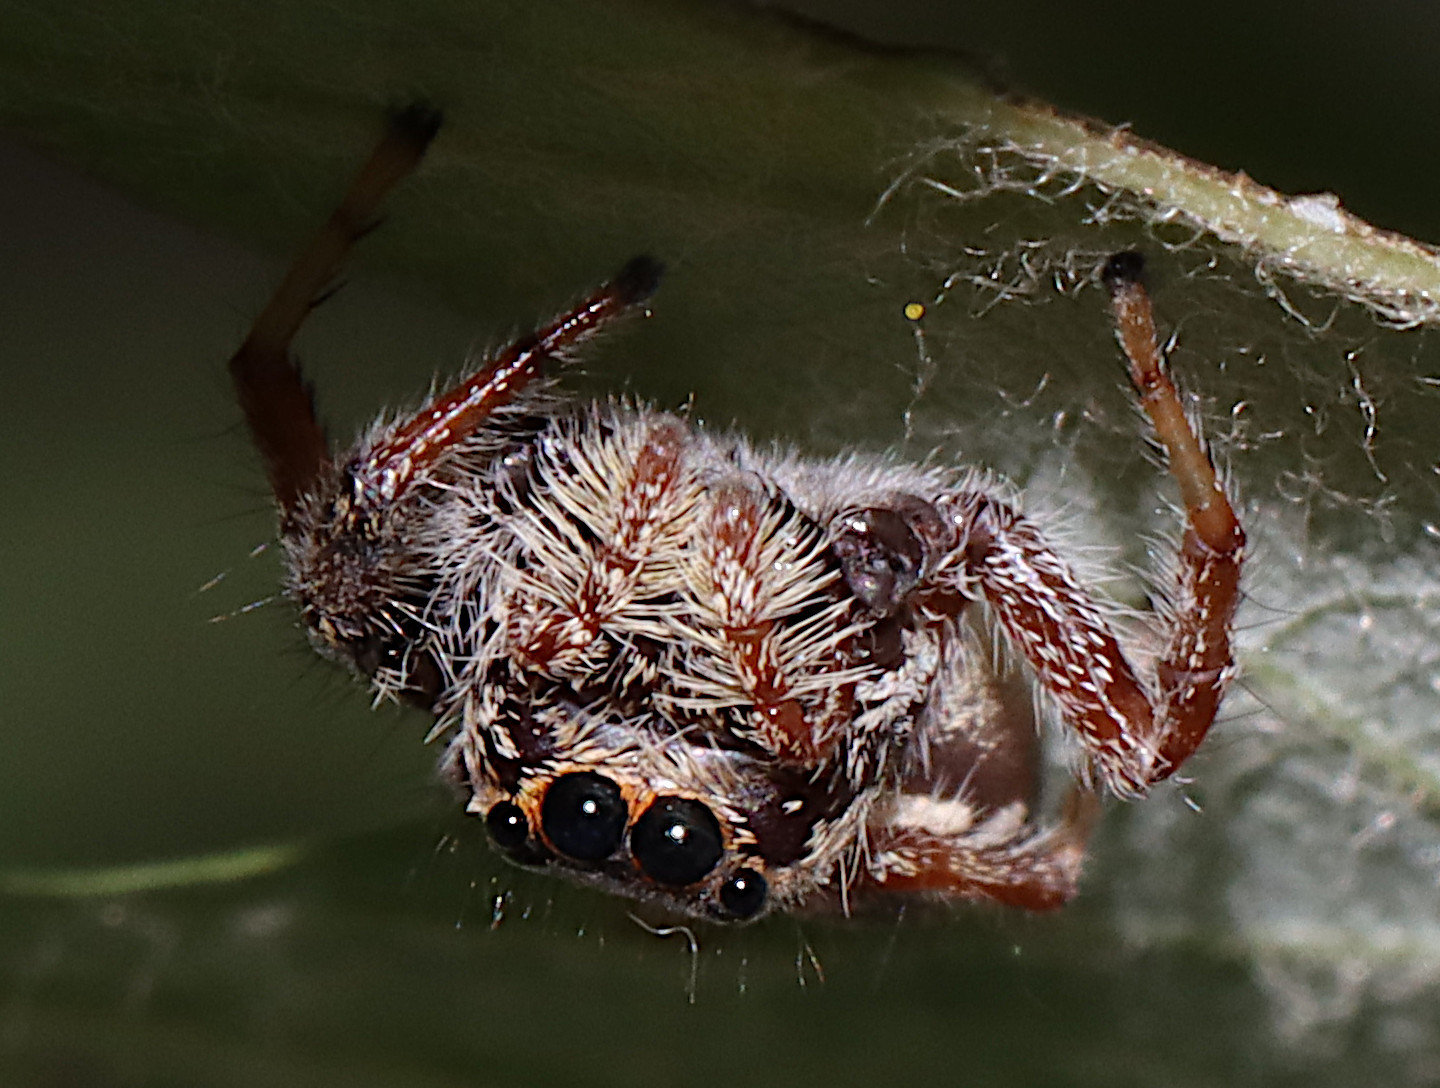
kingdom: Animalia
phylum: Arthropoda
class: Arachnida
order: Araneae
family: Salticidae
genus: Paraphidippus
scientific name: Paraphidippus aurantius
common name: Jumping spiders
